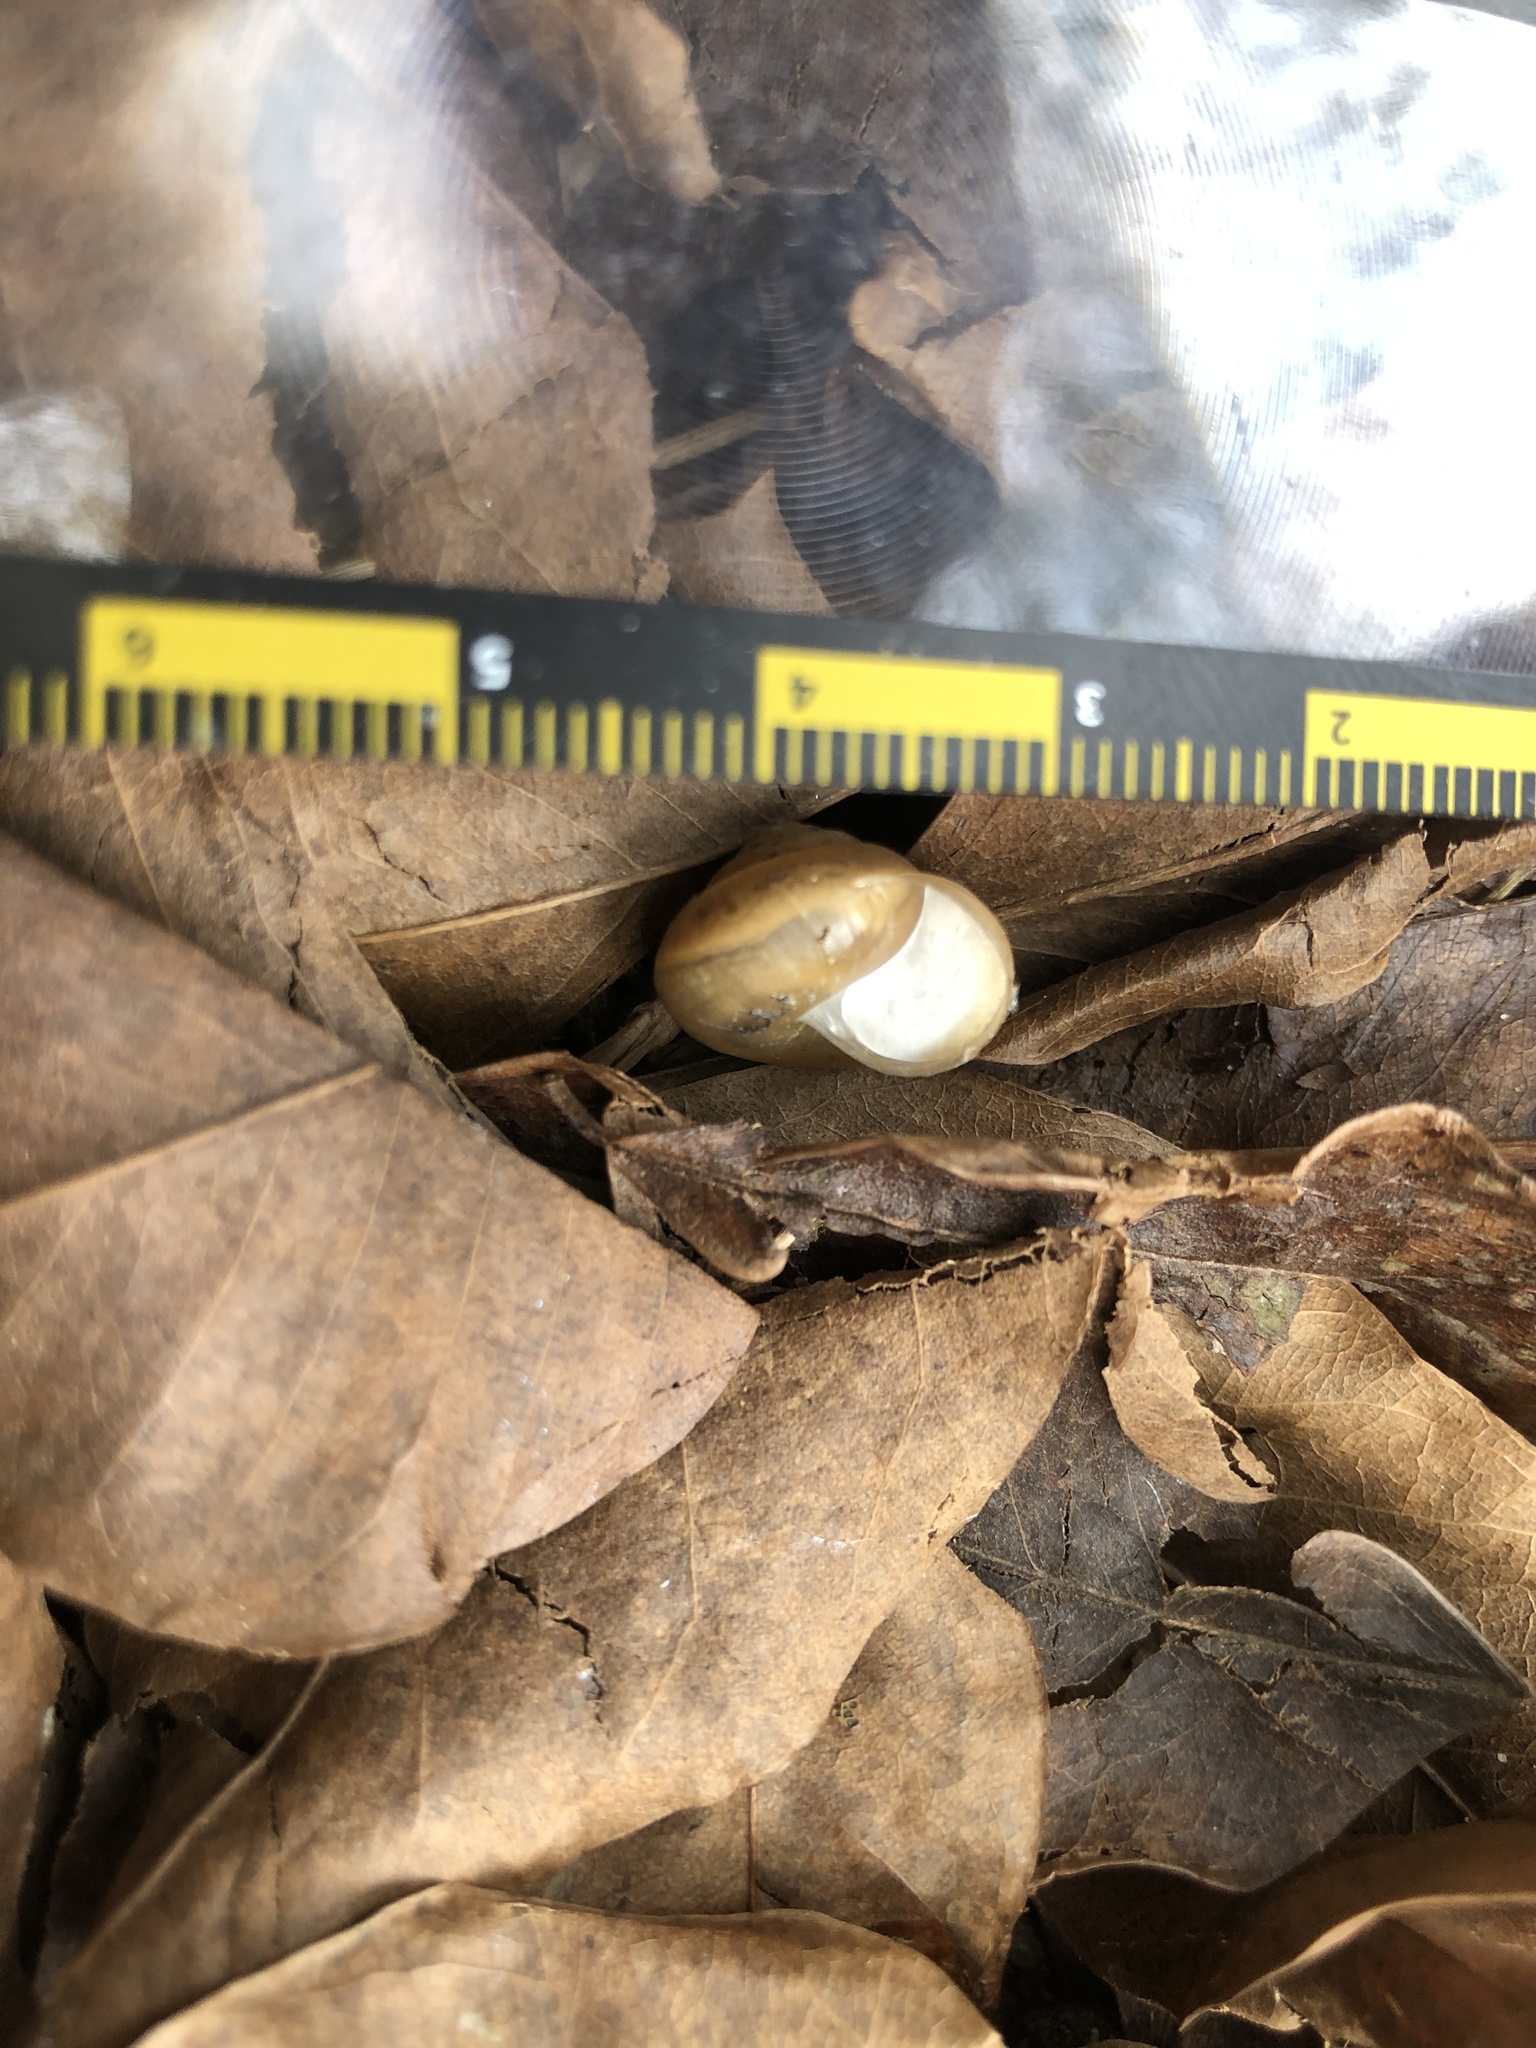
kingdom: Animalia
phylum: Mollusca
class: Gastropoda
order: Stylommatophora
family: Camaenidae
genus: Bradybaena
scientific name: Bradybaena similaris
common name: Asian trampsnail
